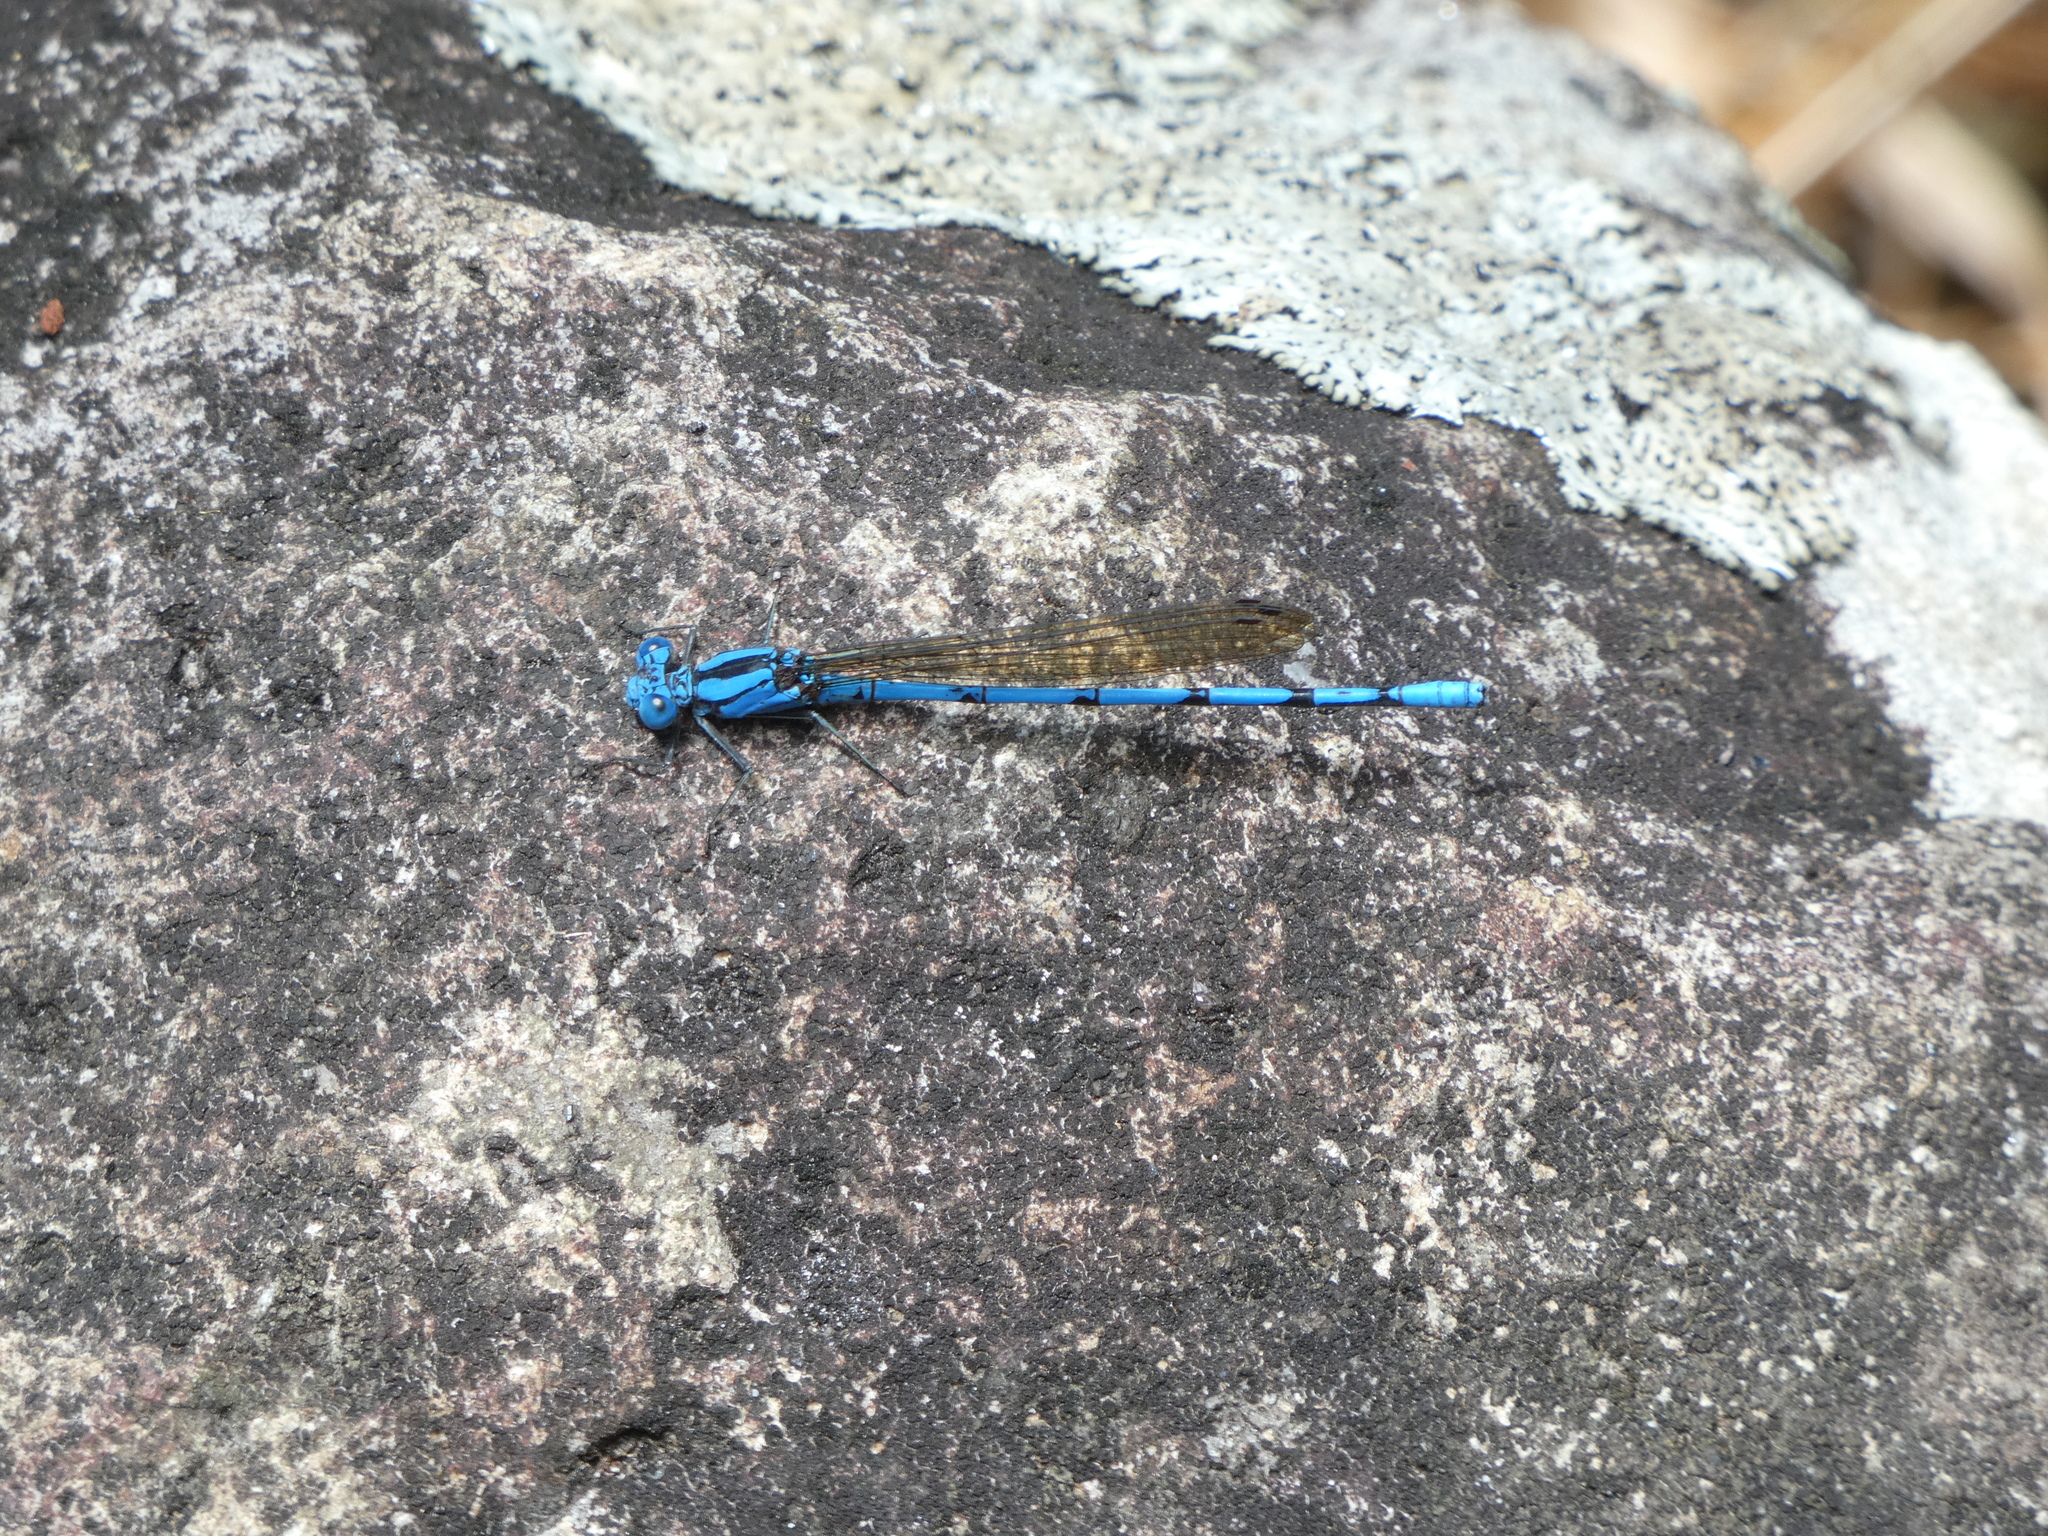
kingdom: Animalia
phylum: Arthropoda
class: Insecta
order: Odonata
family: Coenagrionidae
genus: Argia
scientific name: Argia fissa
